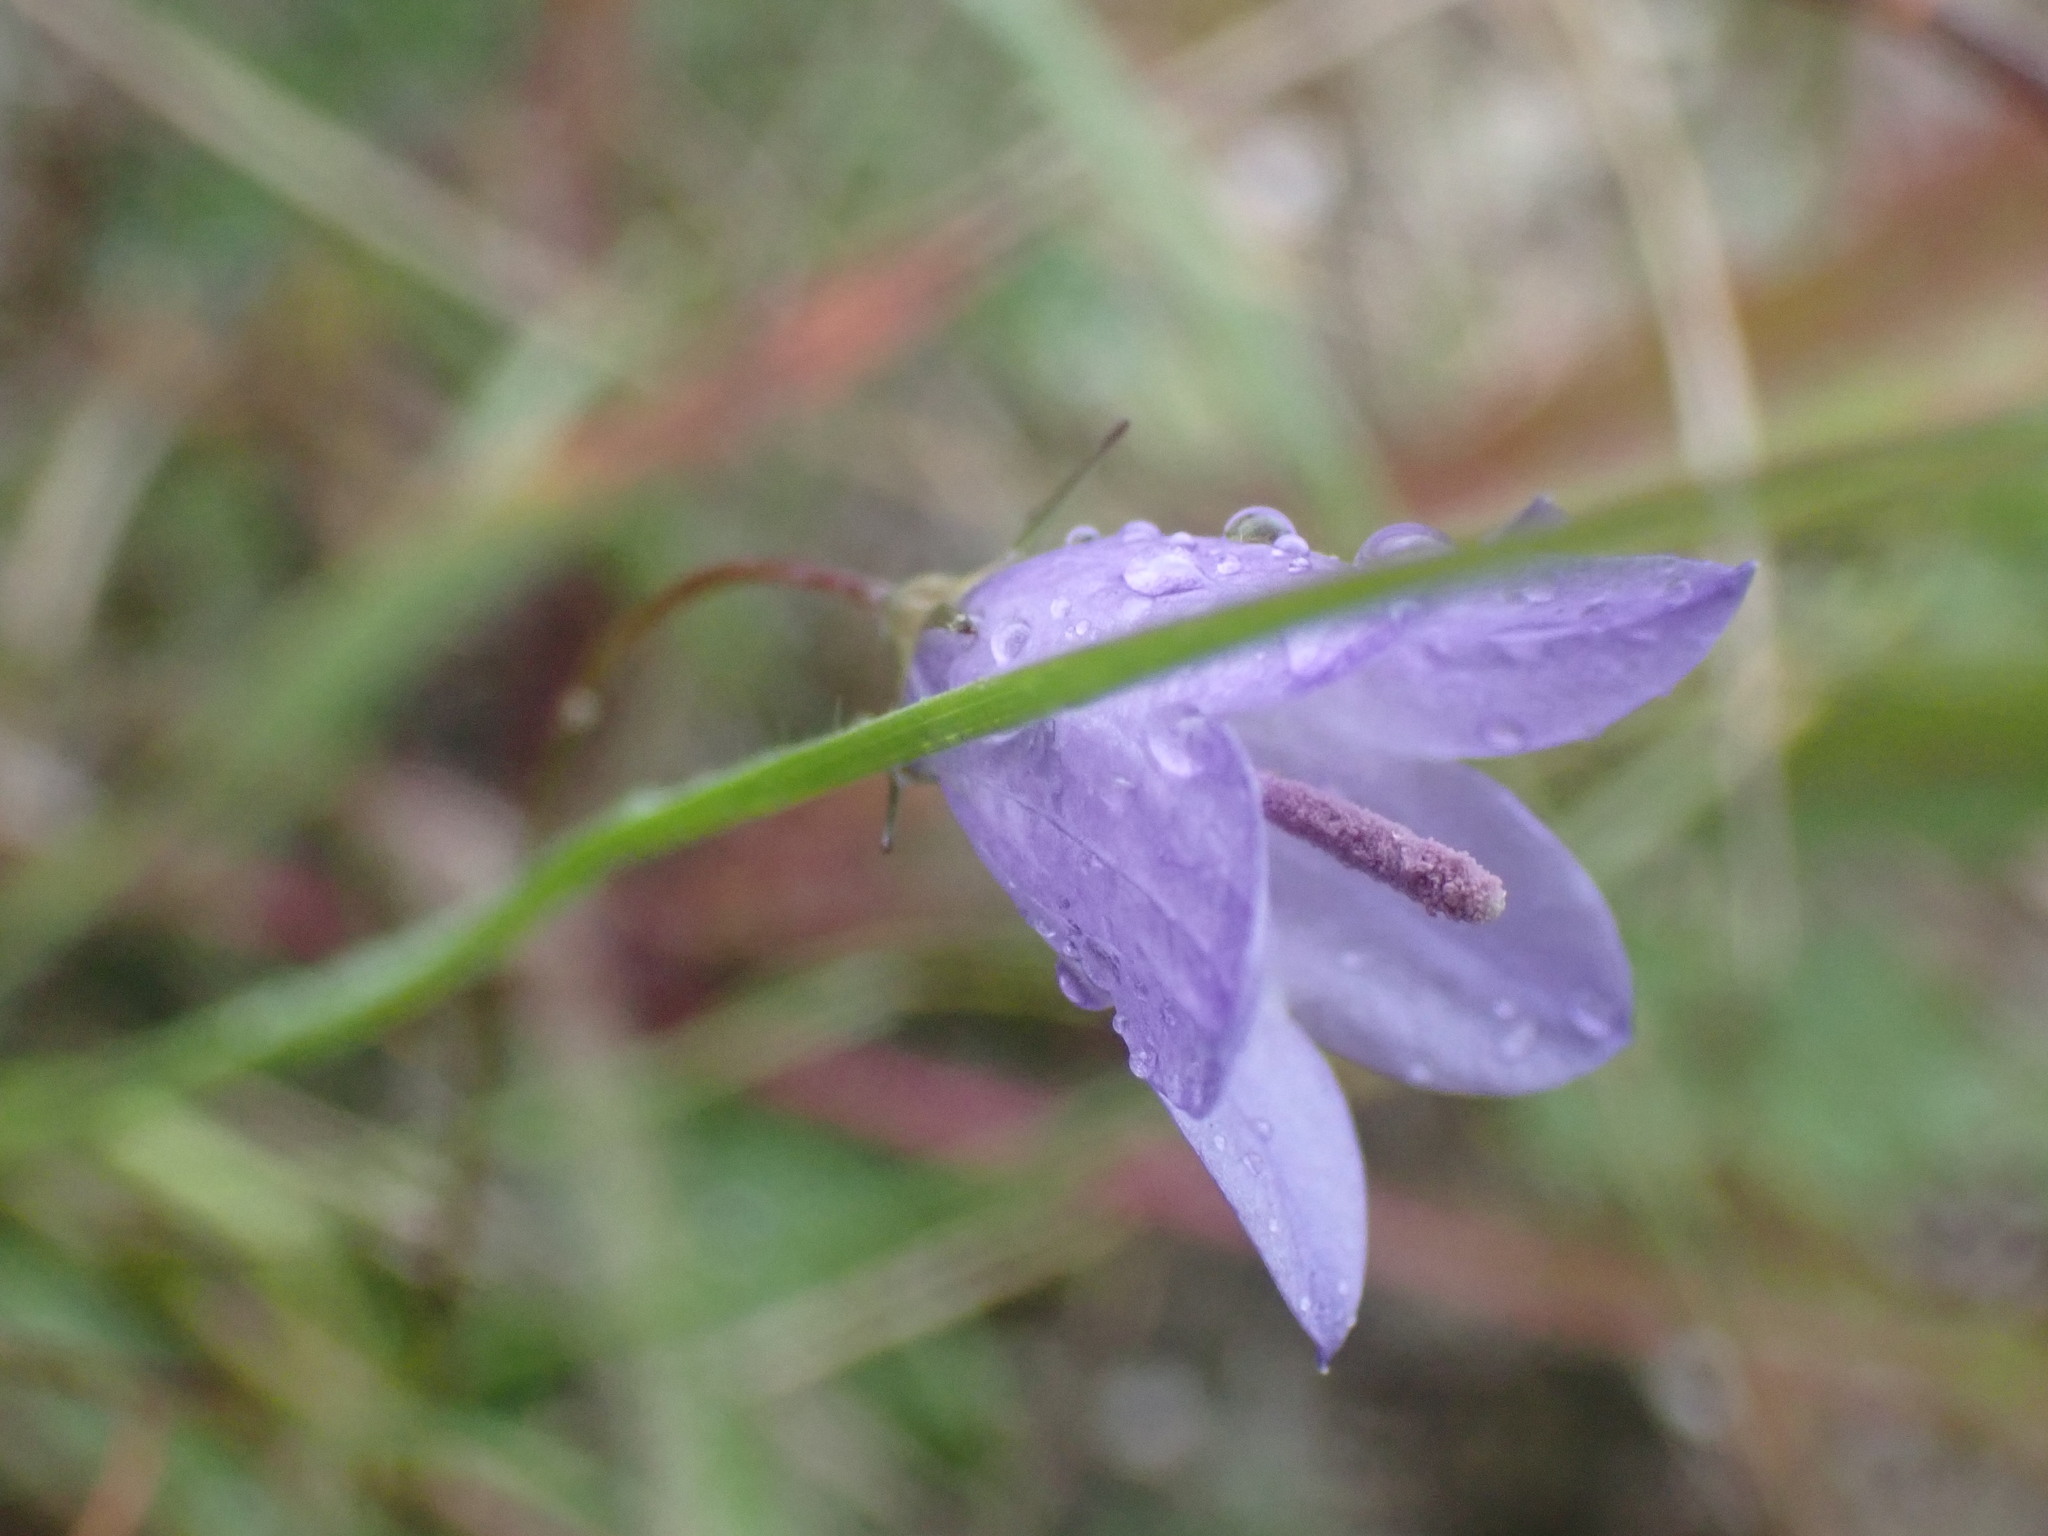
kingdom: Plantae
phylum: Tracheophyta
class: Magnoliopsida
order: Asterales
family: Campanulaceae
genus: Campanula
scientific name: Campanula rotundifolia
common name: Harebell
